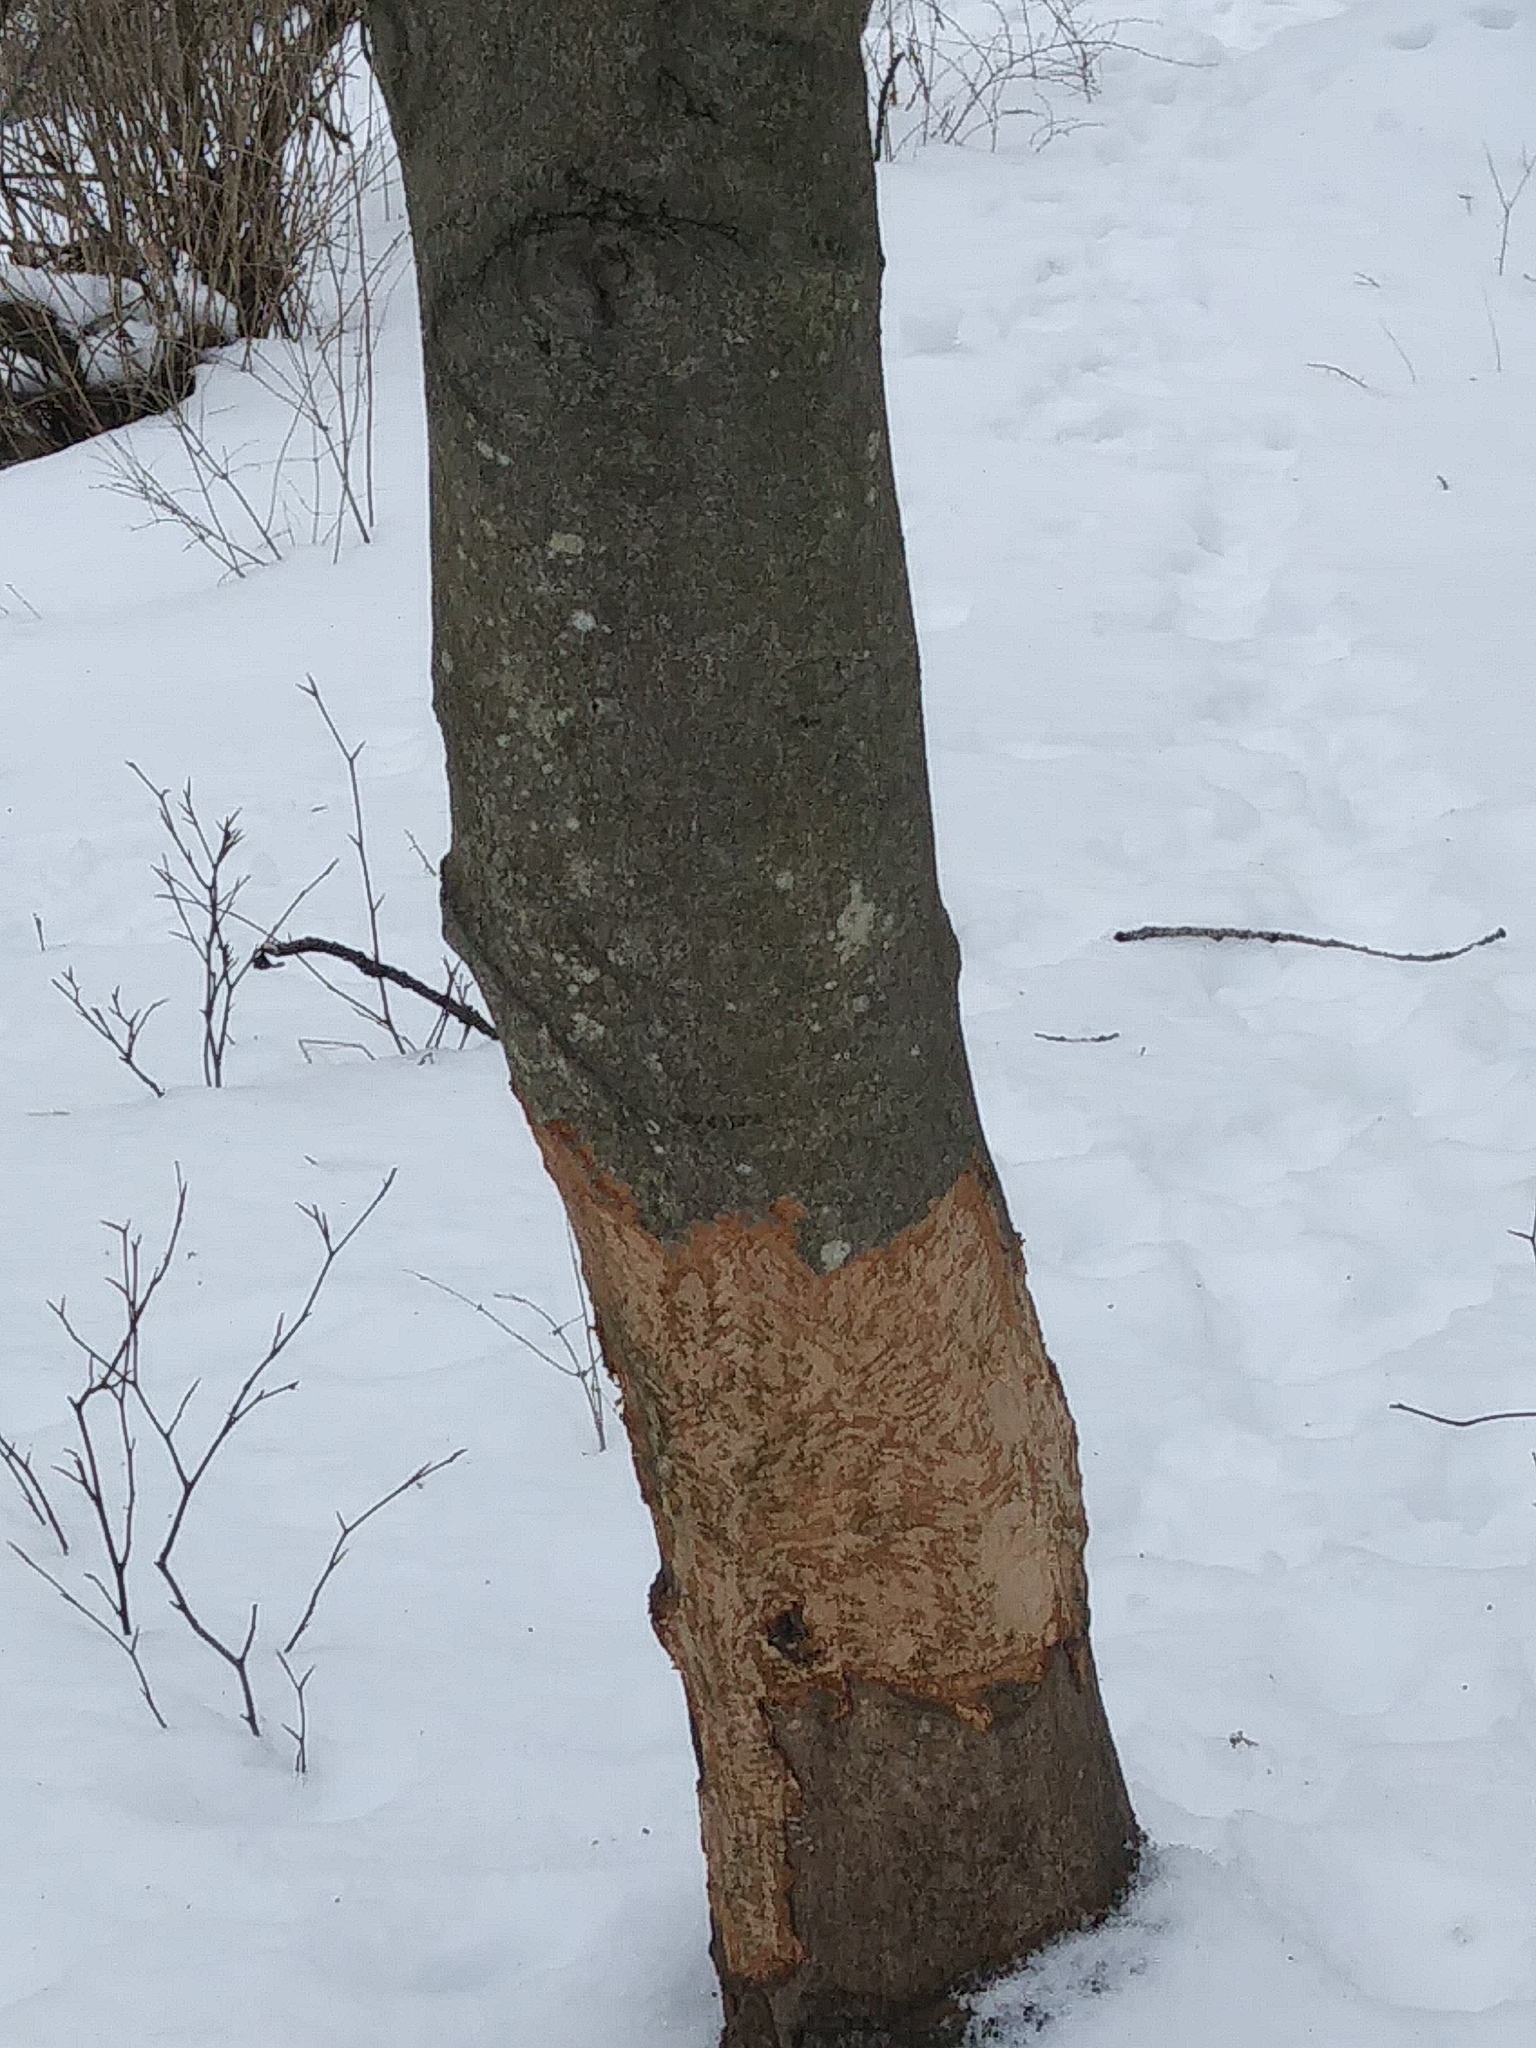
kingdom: Animalia
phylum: Chordata
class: Mammalia
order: Rodentia
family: Erethizontidae
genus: Erethizon
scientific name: Erethizon dorsatus
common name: North american porcupine
